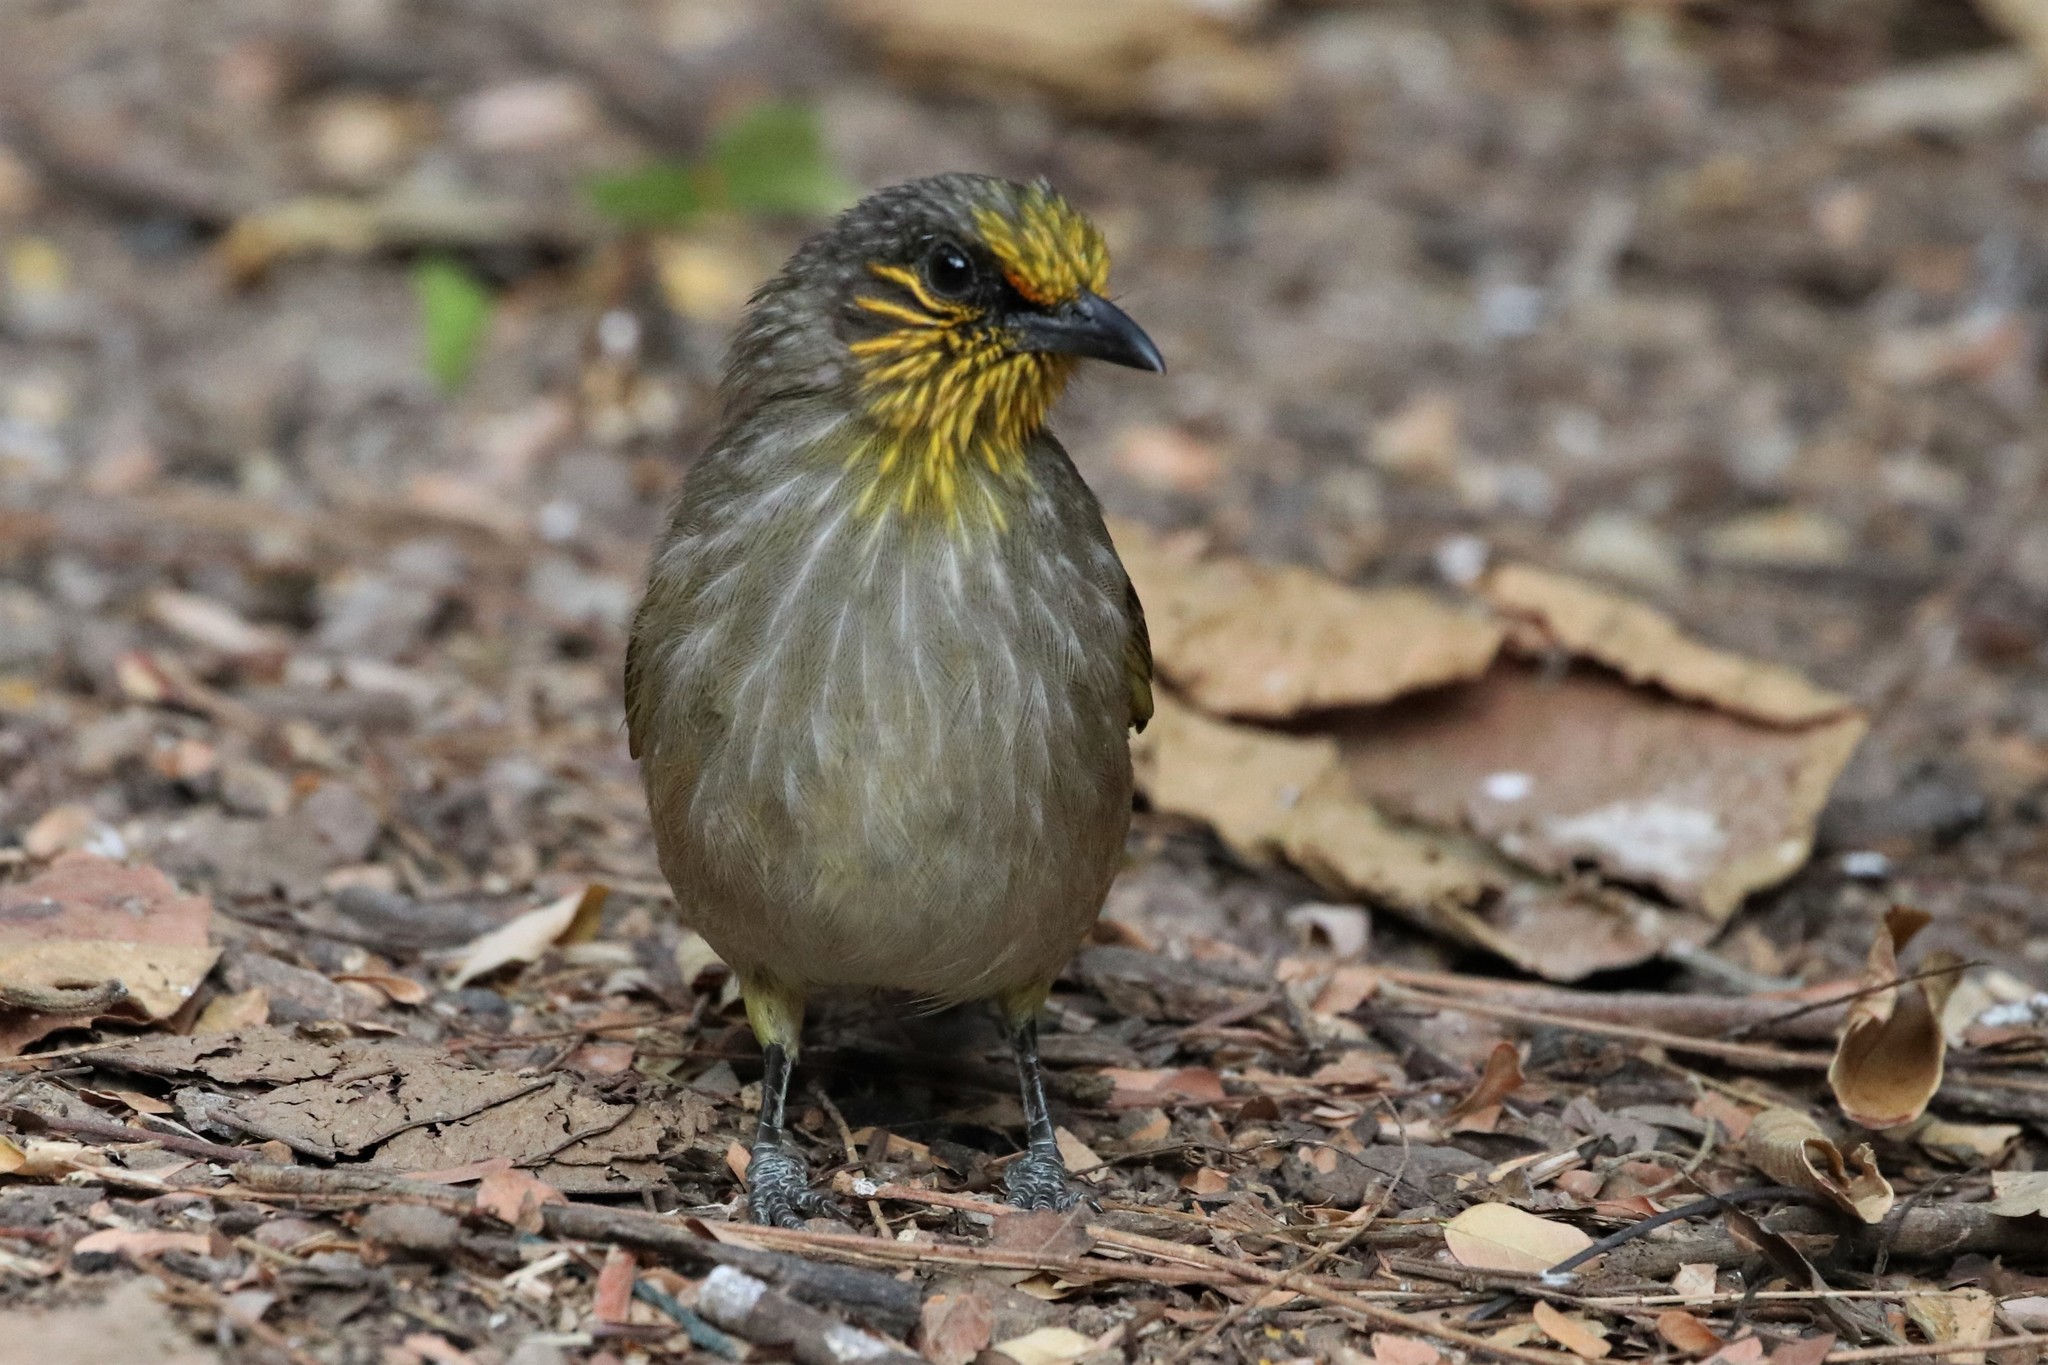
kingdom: Animalia
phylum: Chordata
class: Aves
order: Passeriformes
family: Pycnonotidae
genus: Pycnonotus
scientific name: Pycnonotus finlaysoni
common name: Stripe-throated bulbul
